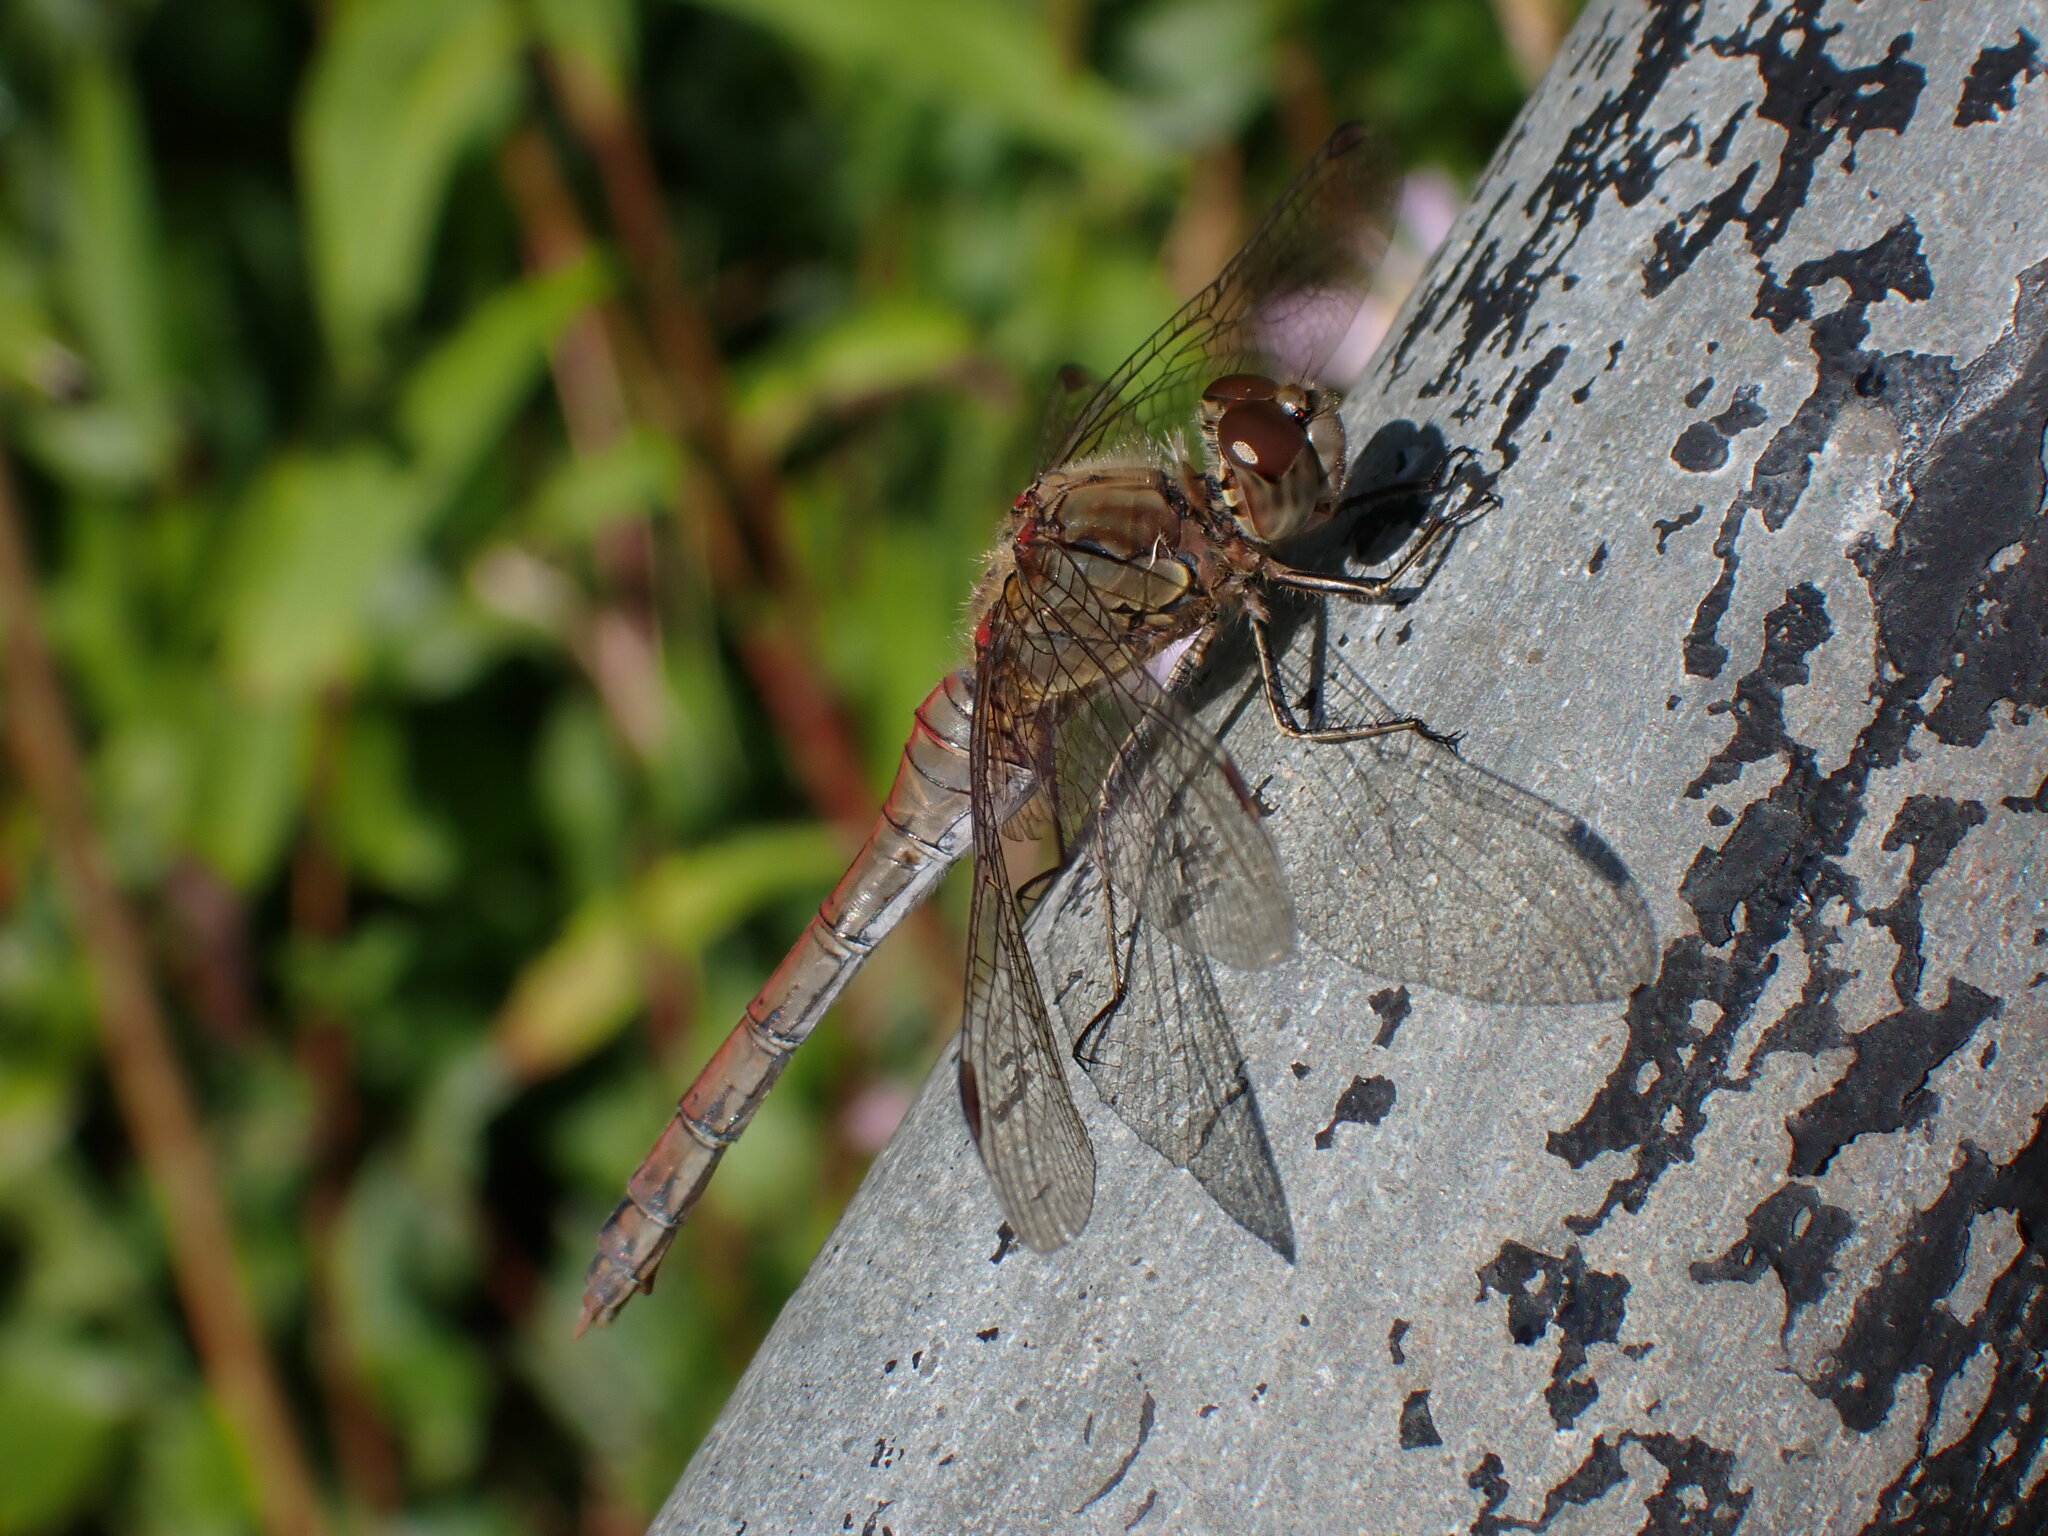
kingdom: Animalia
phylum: Arthropoda
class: Insecta
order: Odonata
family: Libellulidae
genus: Sympetrum
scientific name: Sympetrum striolatum
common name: Common darter
